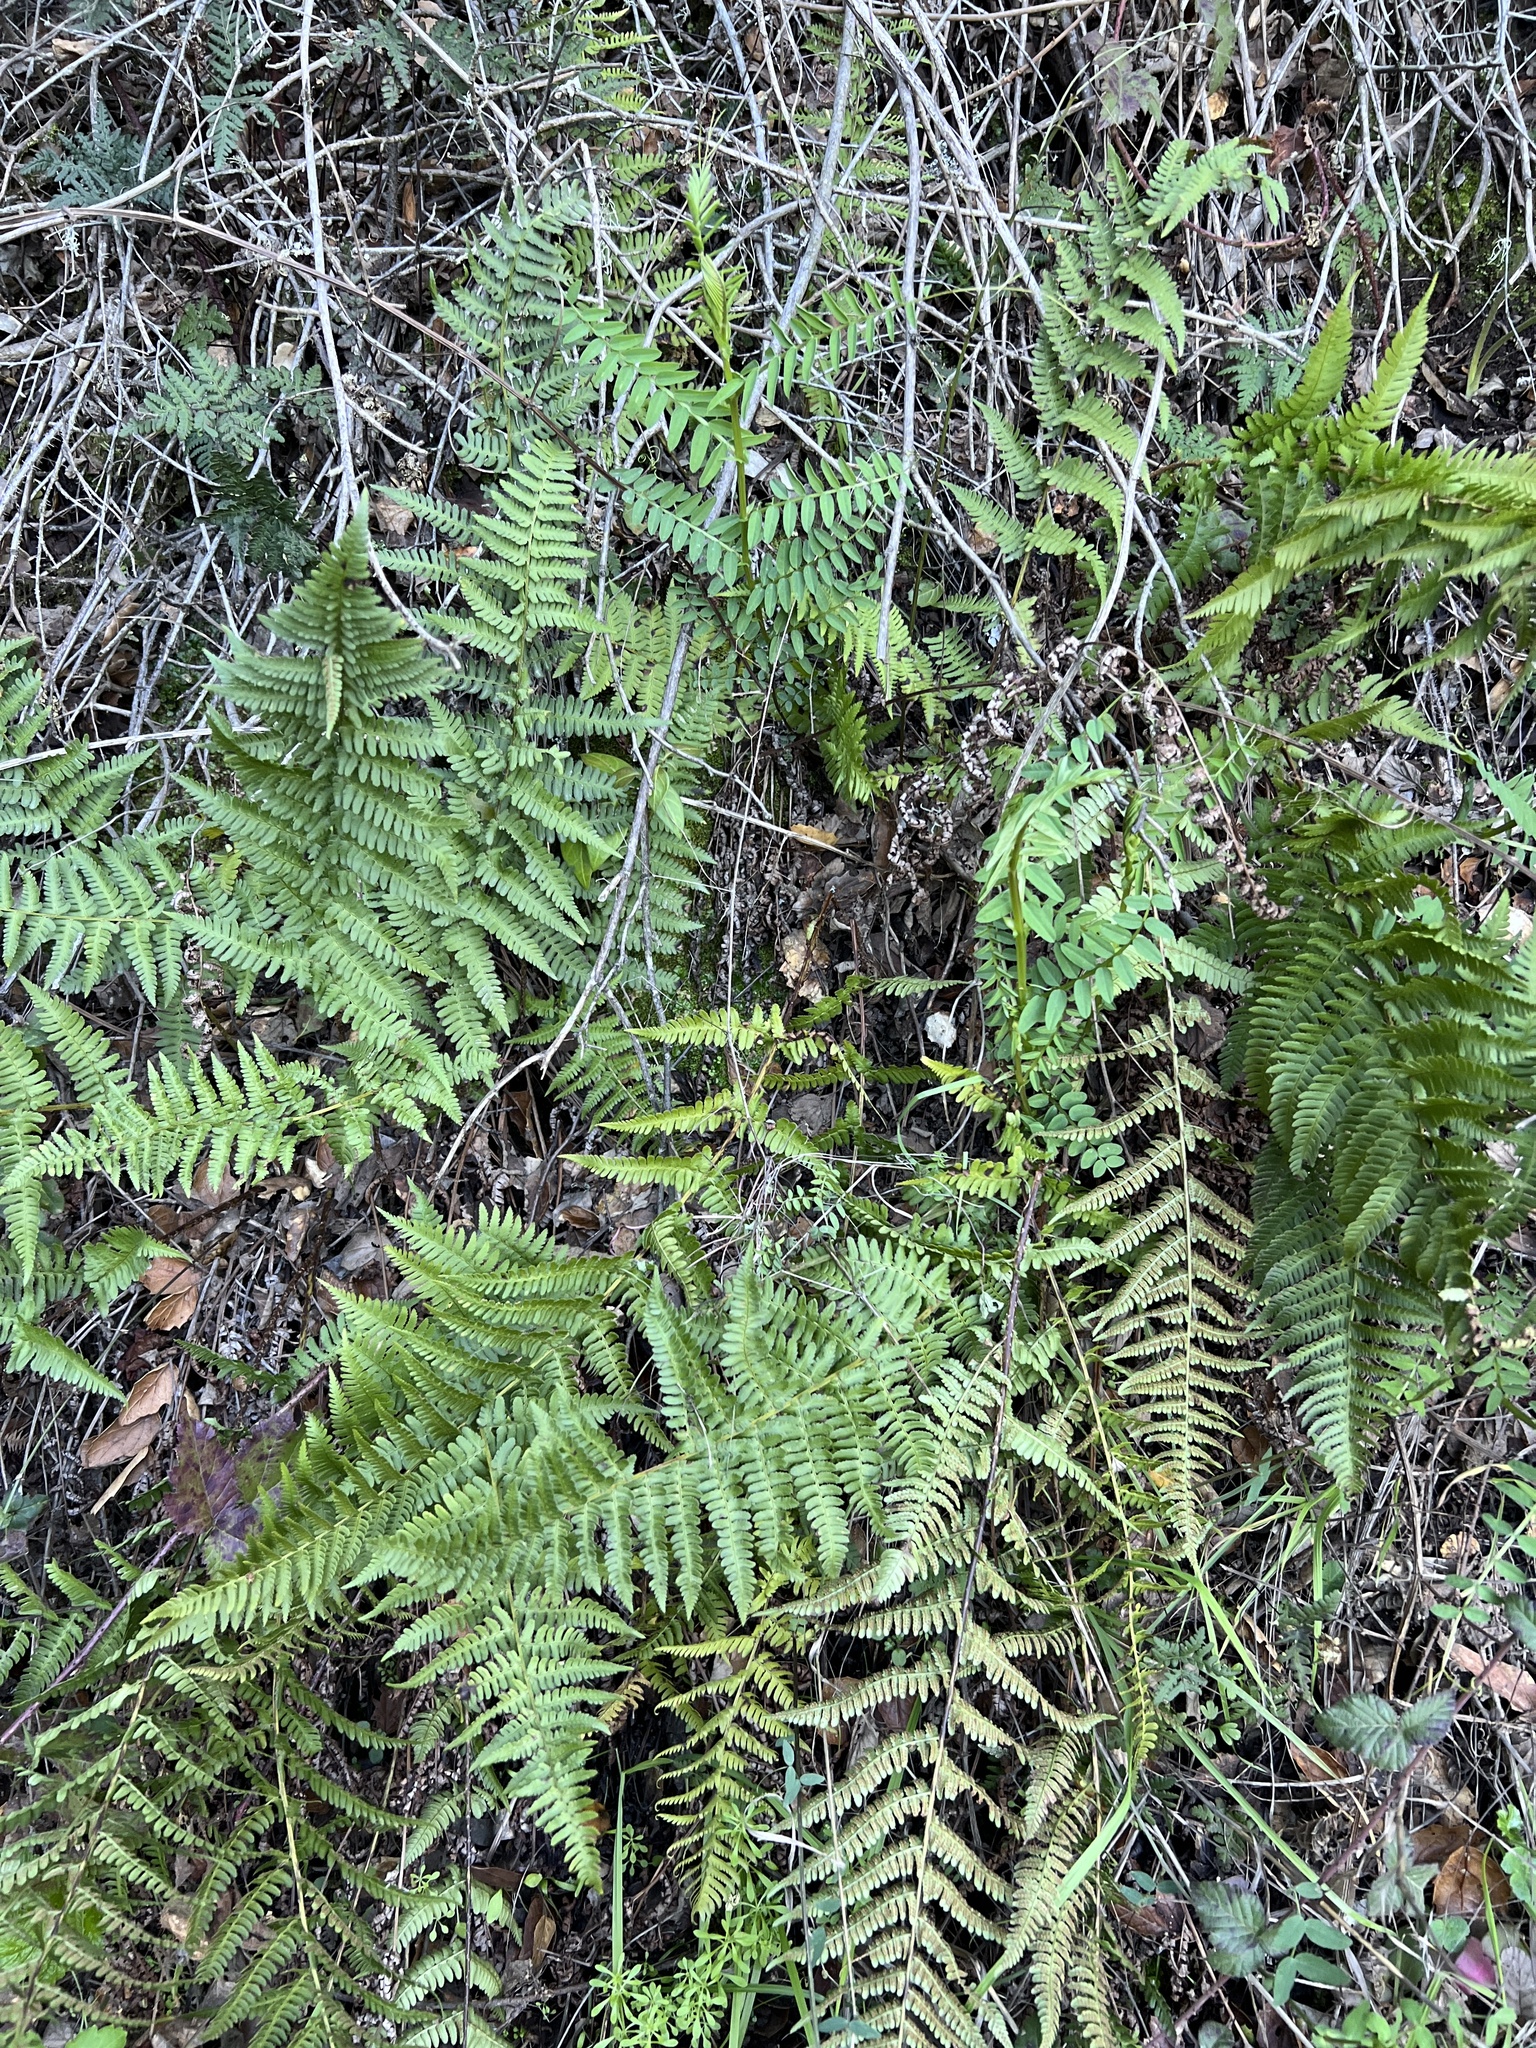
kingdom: Plantae
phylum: Tracheophyta
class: Polypodiopsida
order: Polypodiales
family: Dryopteridaceae
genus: Dryopteris
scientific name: Dryopteris arguta
